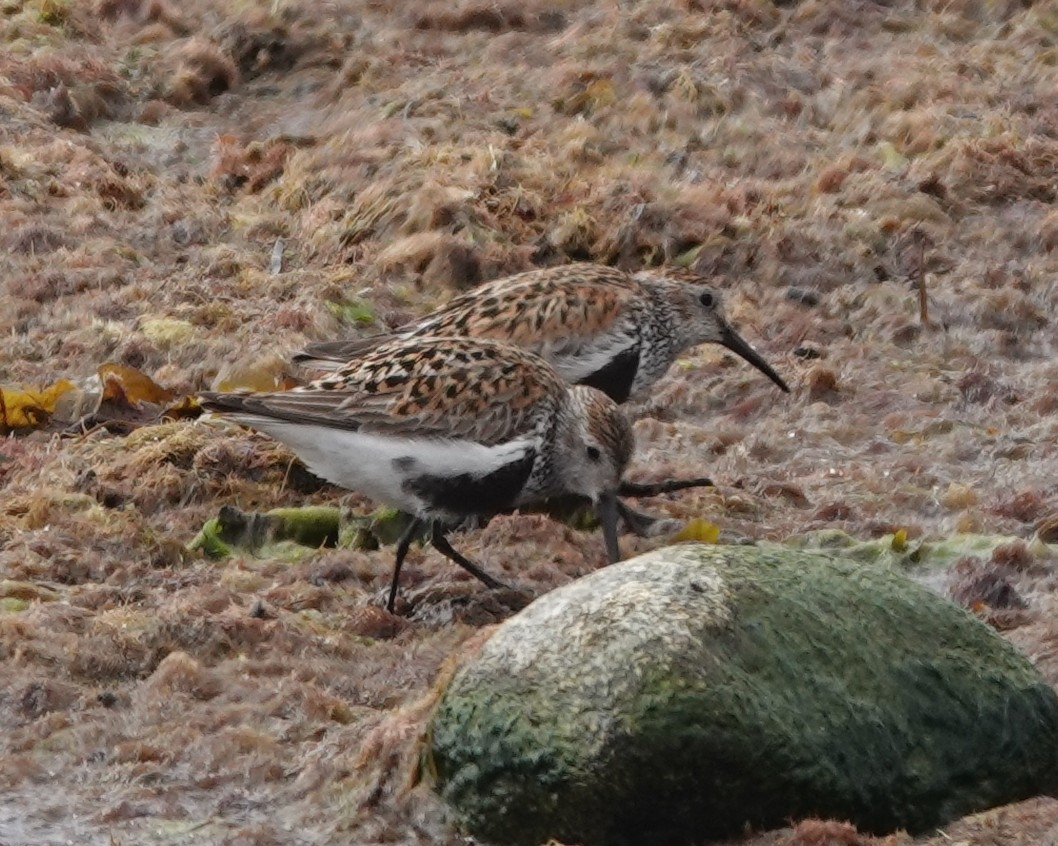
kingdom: Animalia
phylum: Chordata
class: Aves
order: Charadriiformes
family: Scolopacidae
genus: Calidris
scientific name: Calidris alpina
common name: Dunlin
